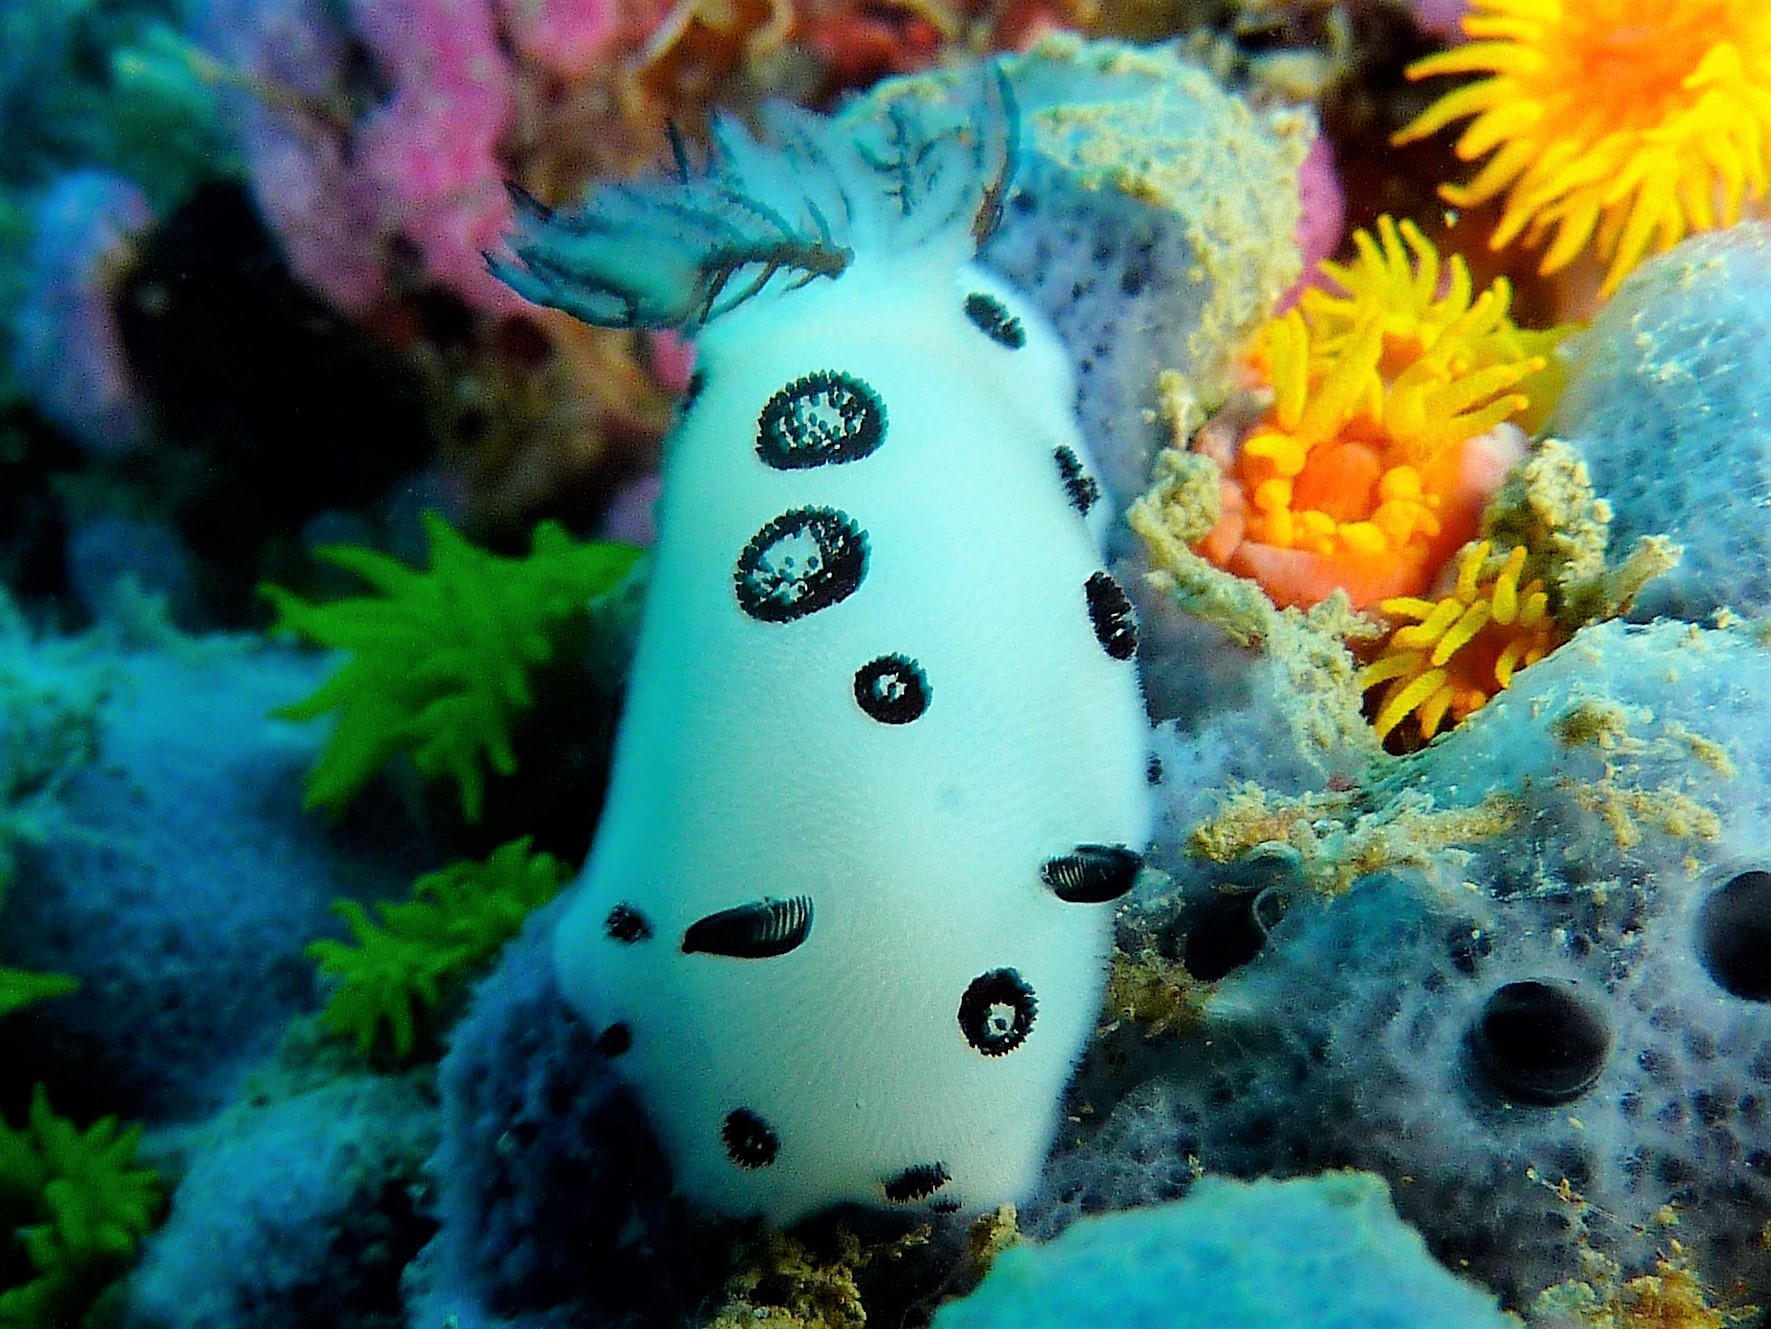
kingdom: Animalia
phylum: Mollusca
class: Gastropoda
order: Nudibranchia
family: Discodorididae
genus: Jorunna
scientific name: Jorunna funebris
